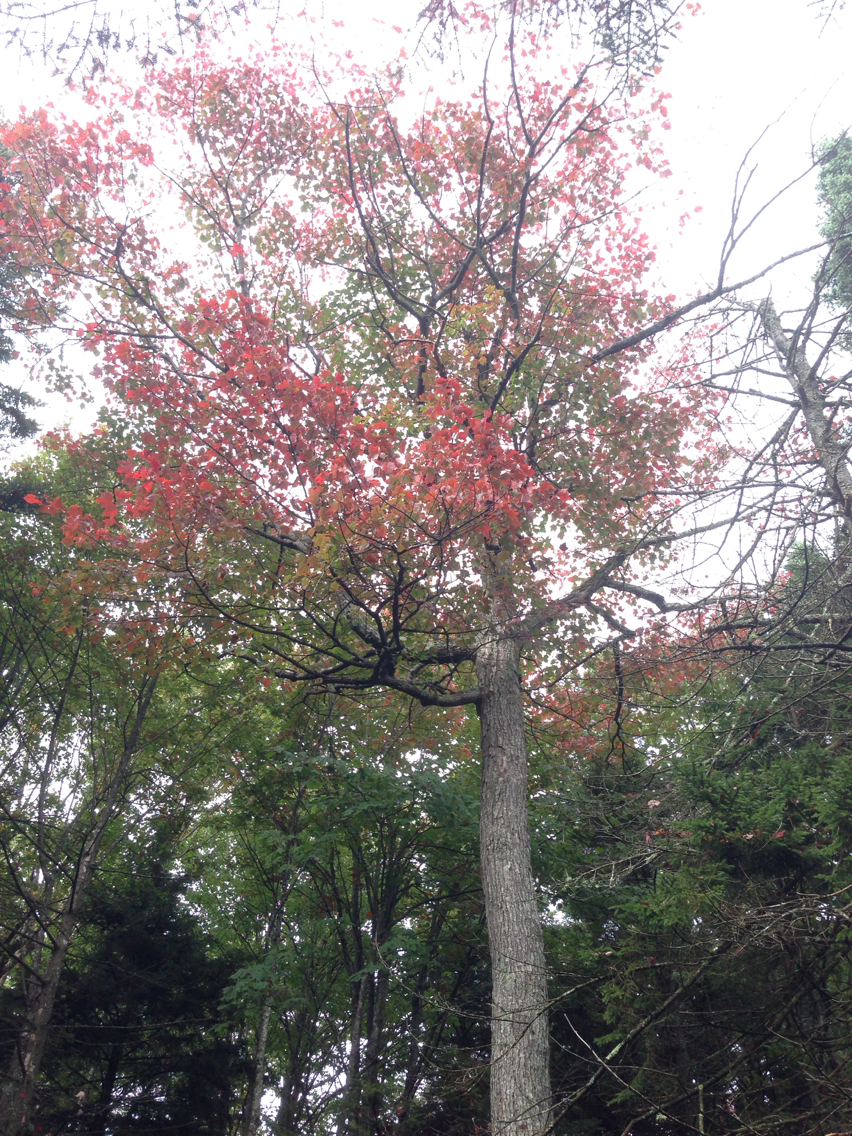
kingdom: Plantae
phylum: Tracheophyta
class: Magnoliopsida
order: Sapindales
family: Sapindaceae
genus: Acer
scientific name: Acer rubrum
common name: Red maple
